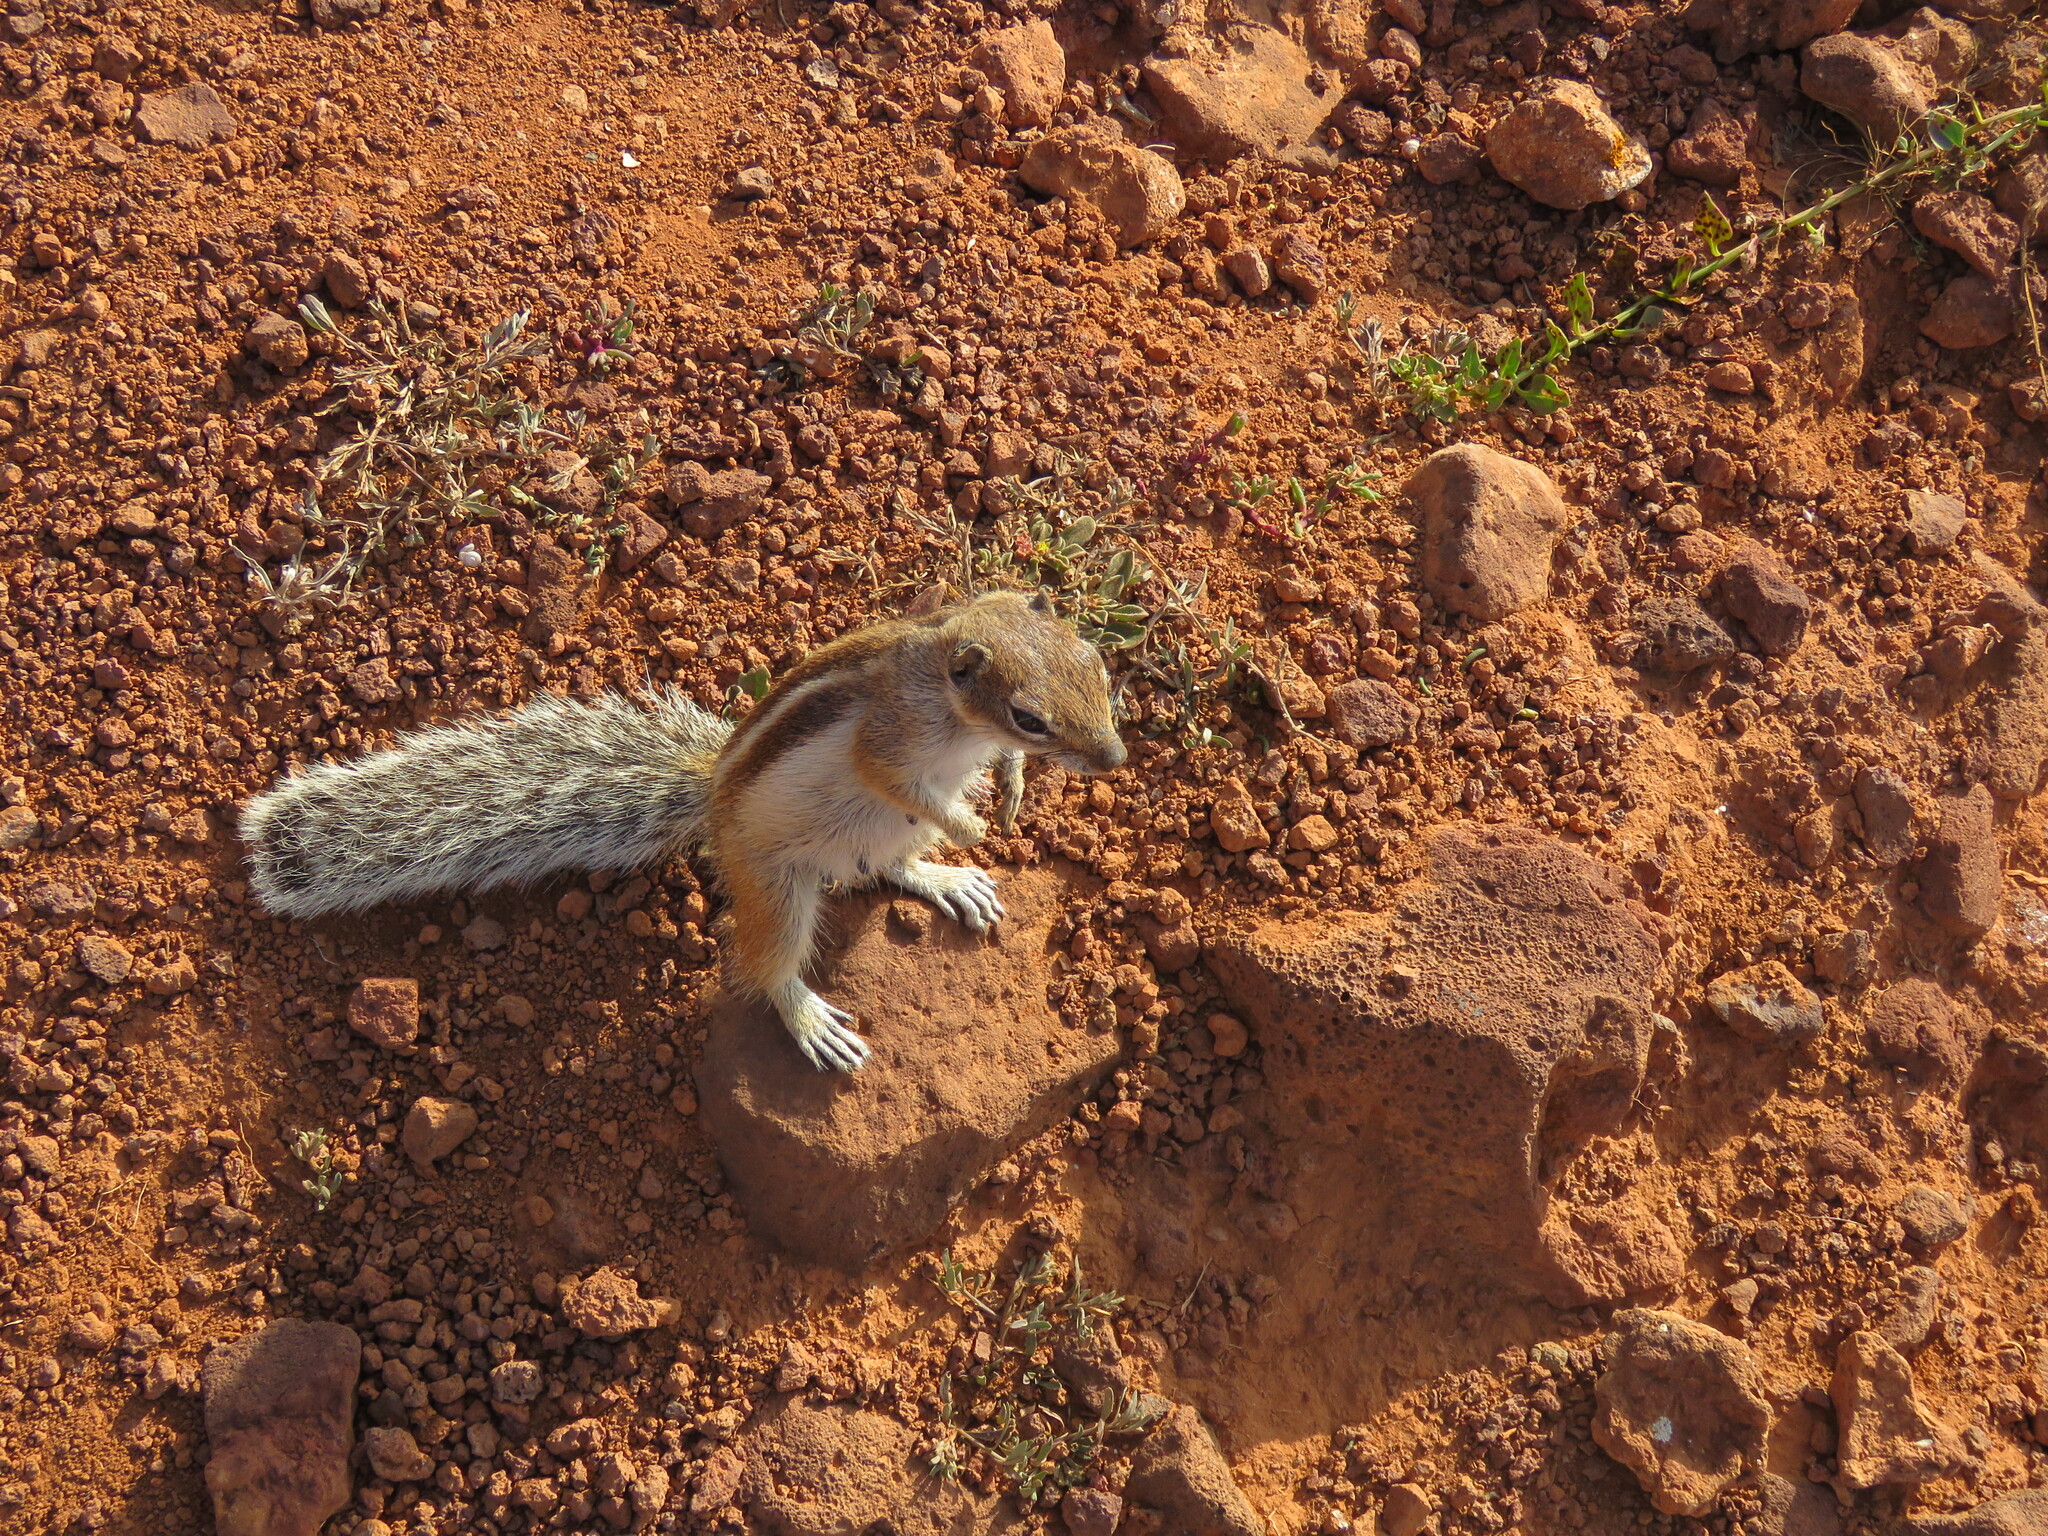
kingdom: Animalia
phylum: Chordata
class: Mammalia
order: Rodentia
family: Sciuridae
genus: Atlantoxerus
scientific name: Atlantoxerus getulus
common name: Barbary ground squirrel
